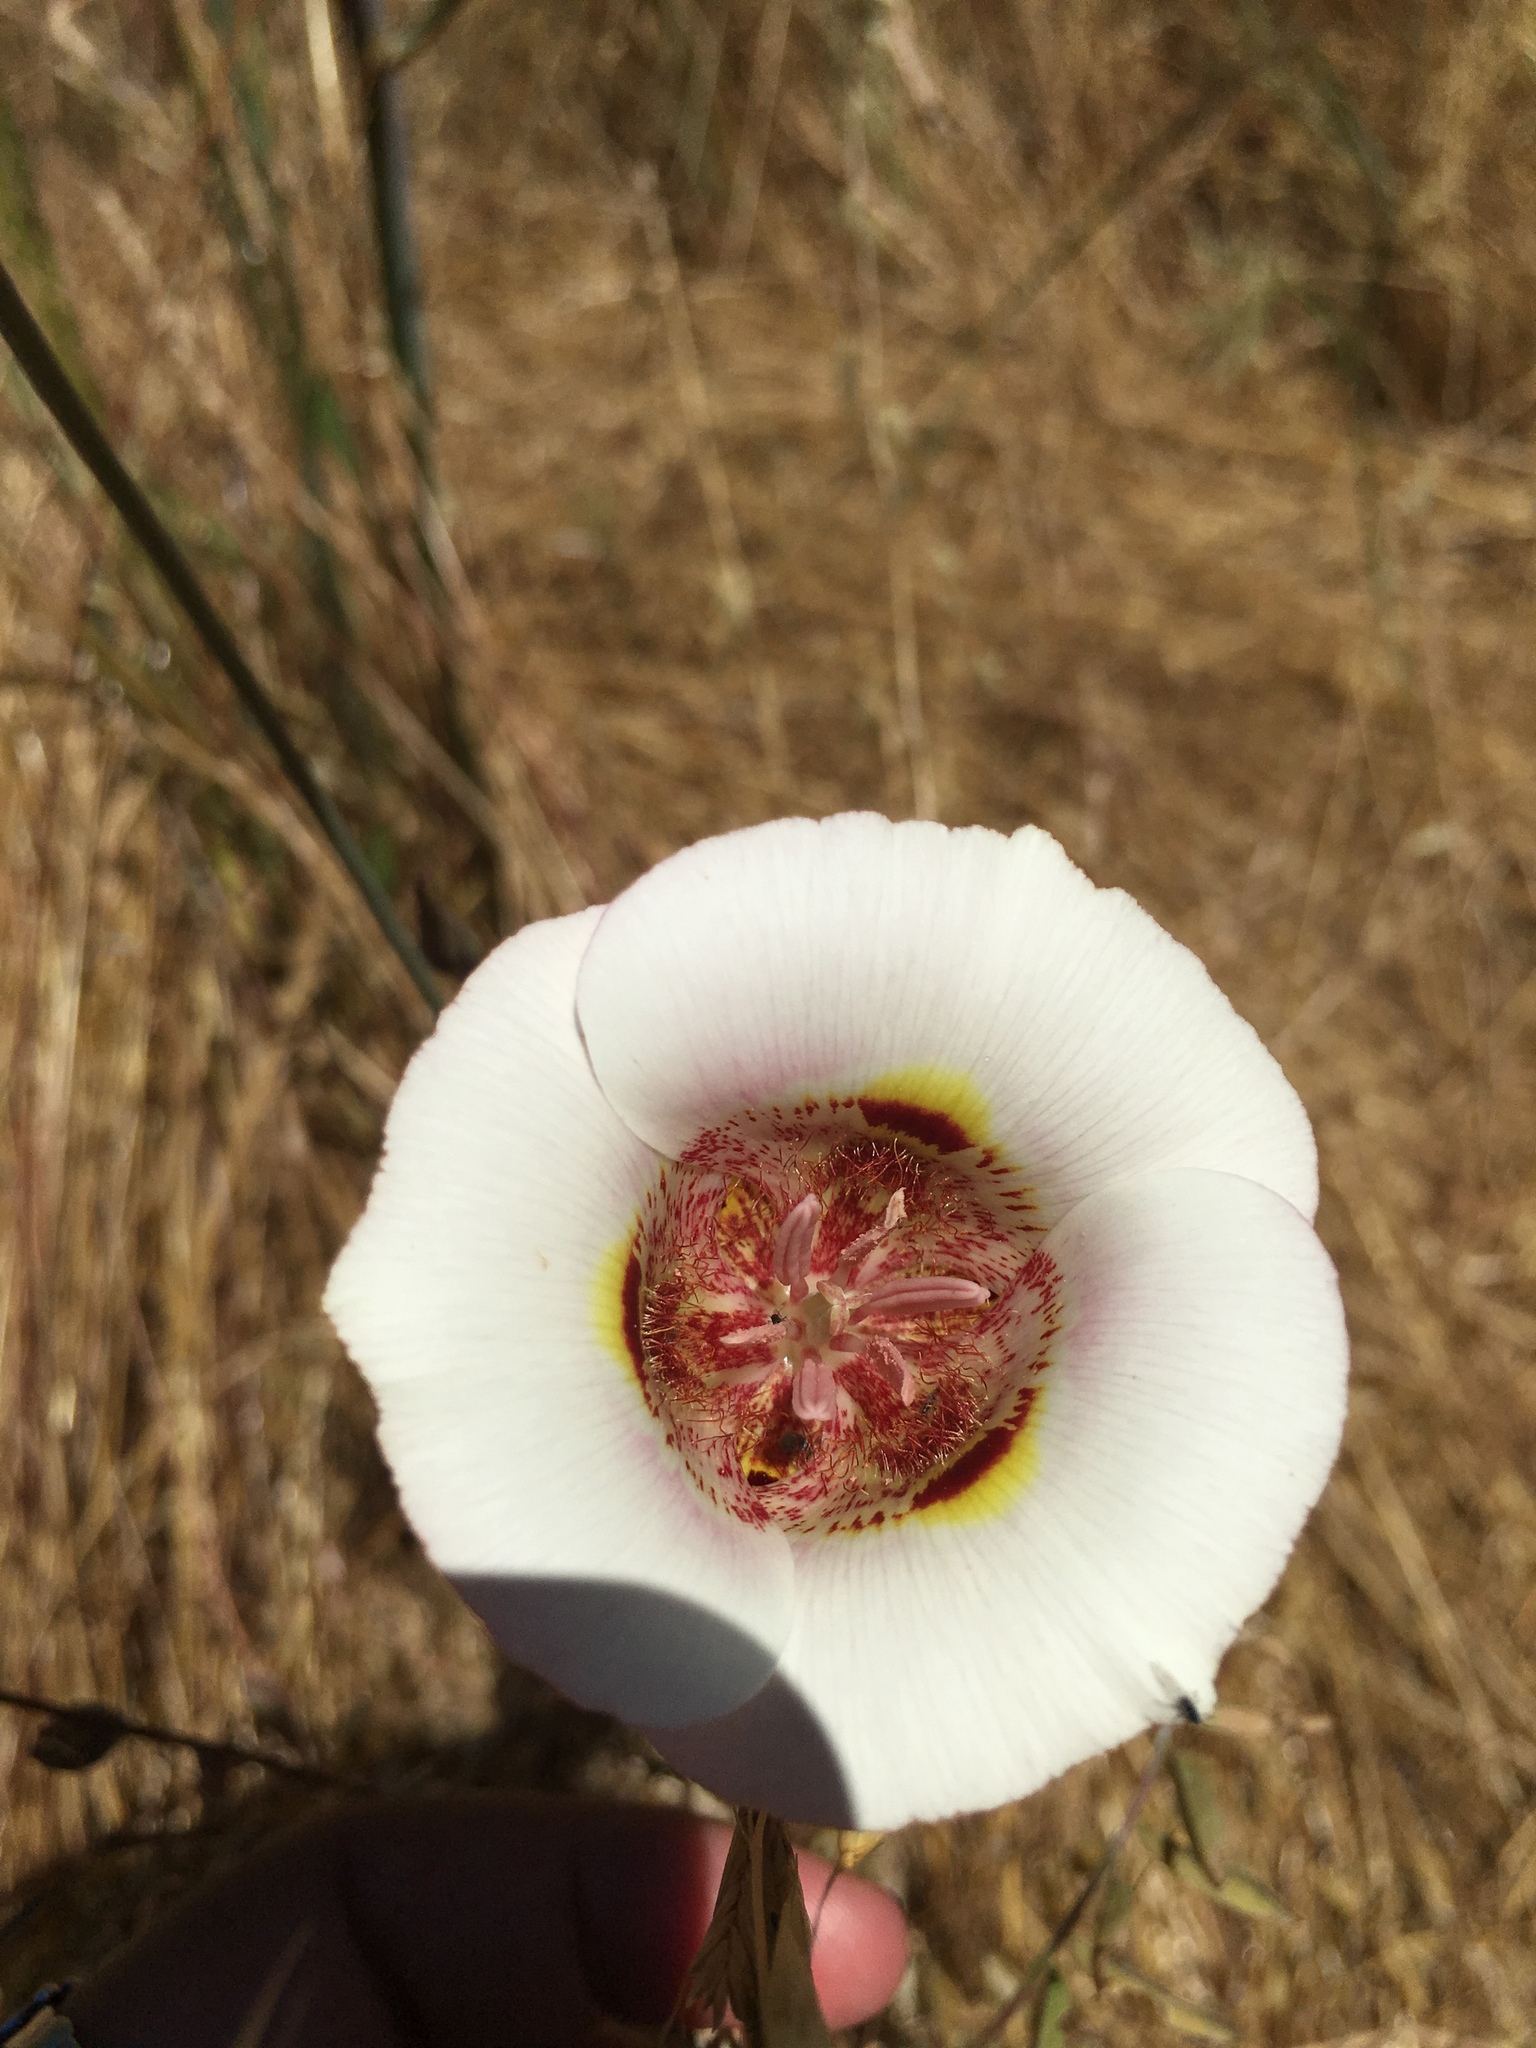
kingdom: Plantae
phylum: Tracheophyta
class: Liliopsida
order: Liliales
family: Liliaceae
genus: Calochortus
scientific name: Calochortus argillosus
